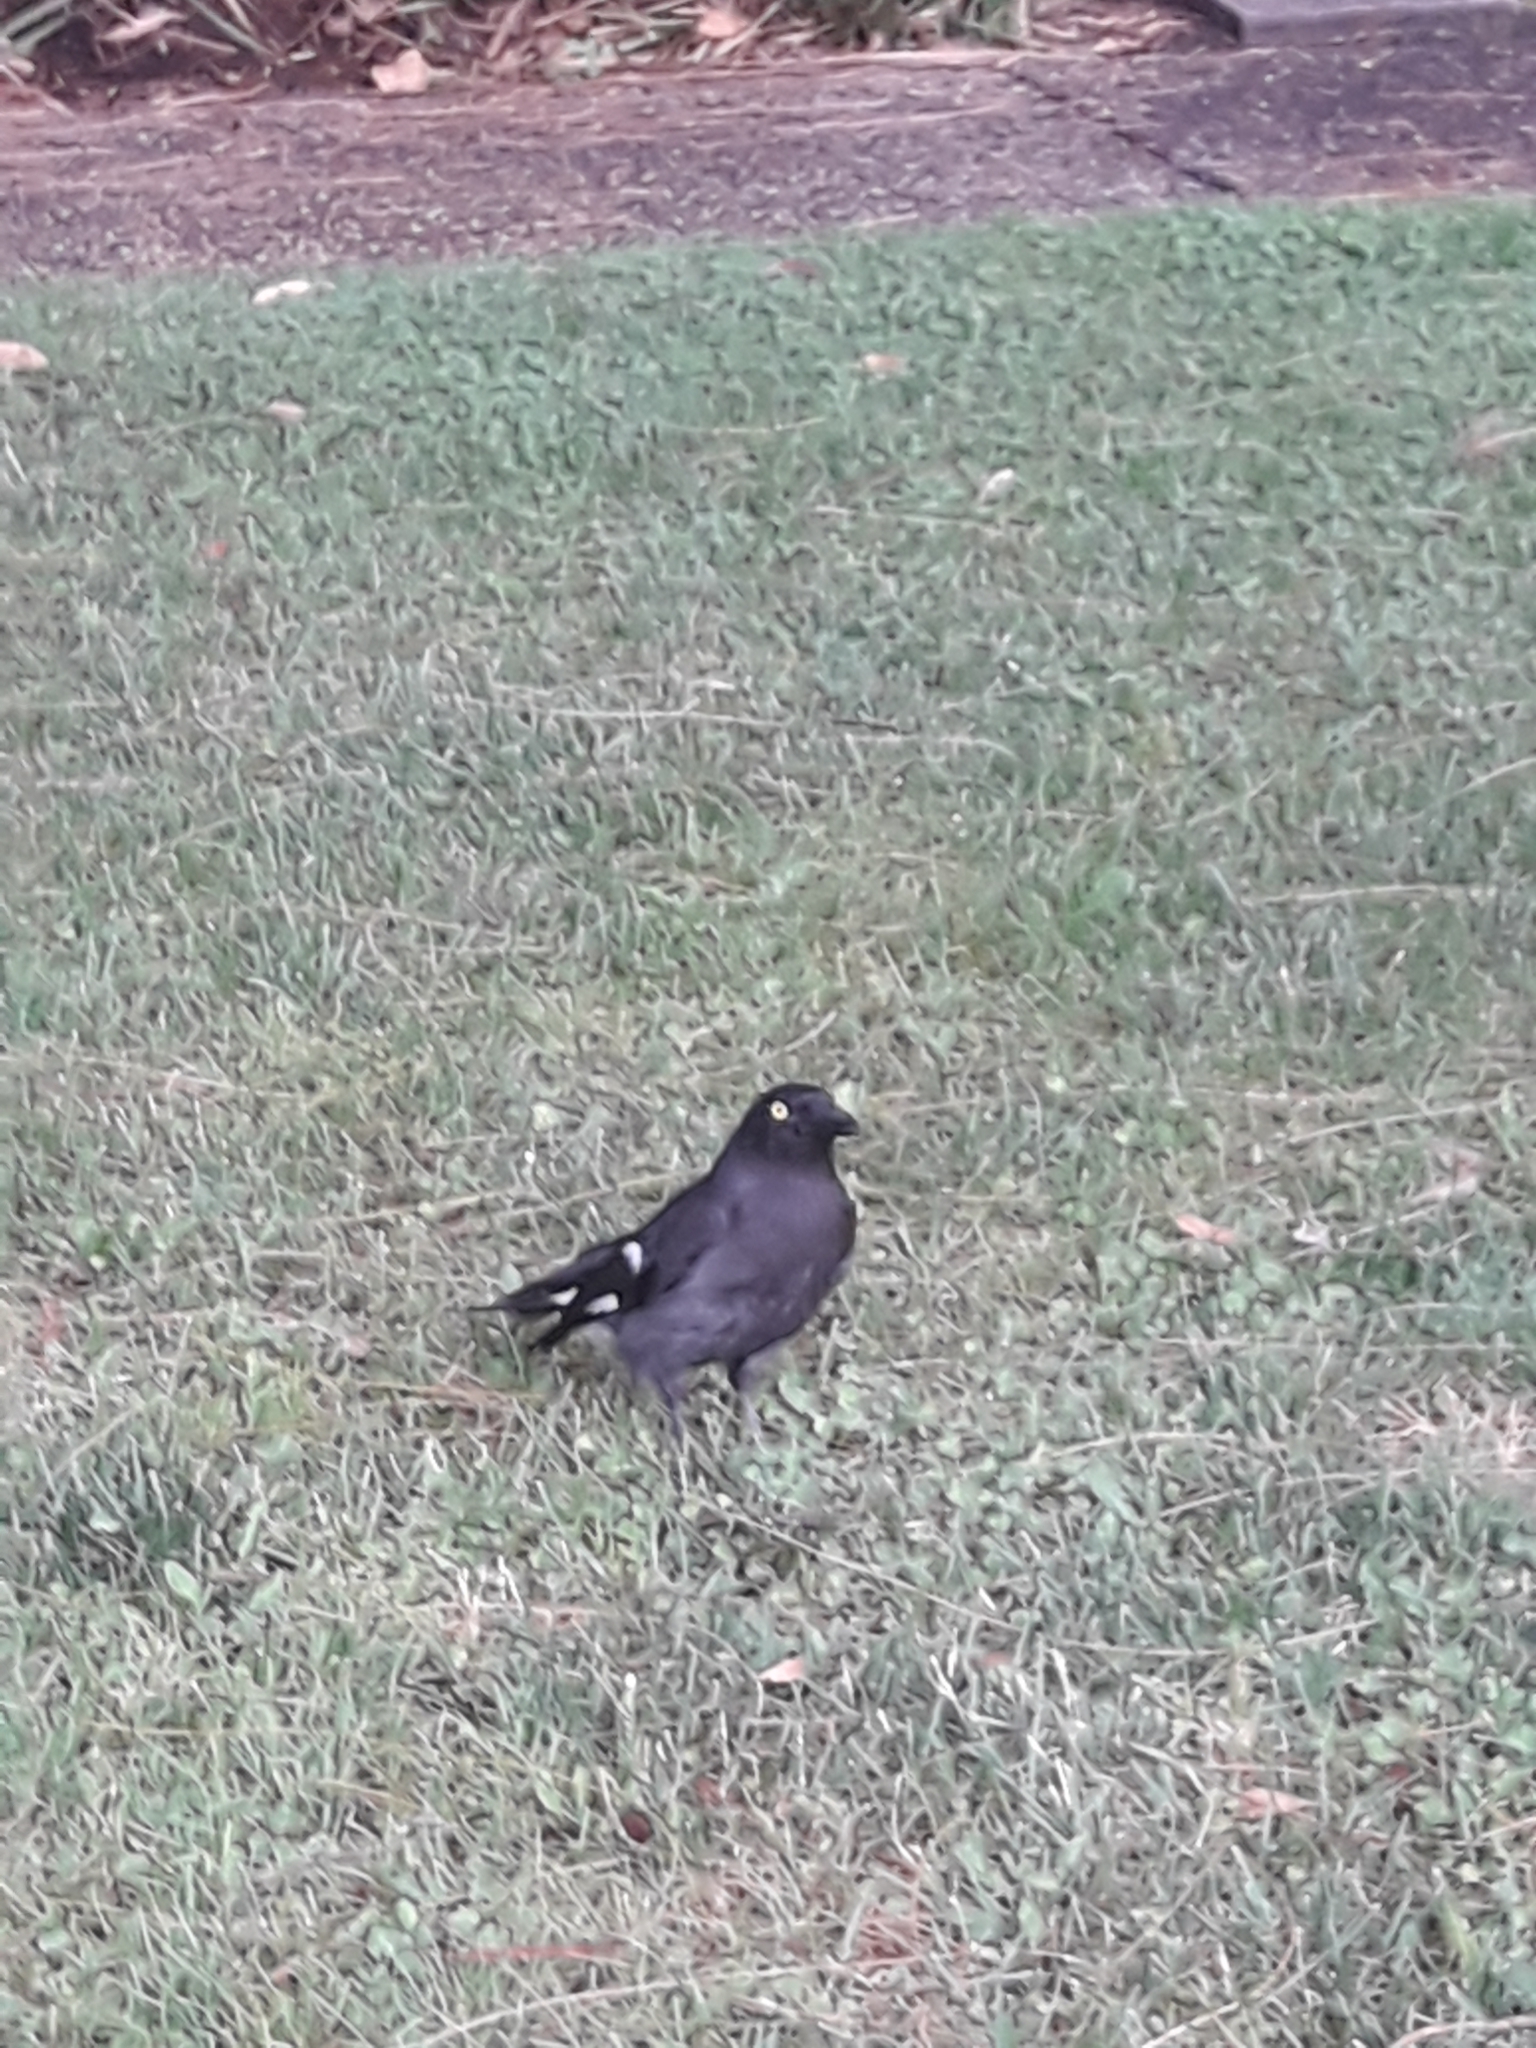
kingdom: Animalia
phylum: Chordata
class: Aves
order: Passeriformes
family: Cracticidae
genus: Strepera
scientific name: Strepera graculina
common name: Pied currawong
